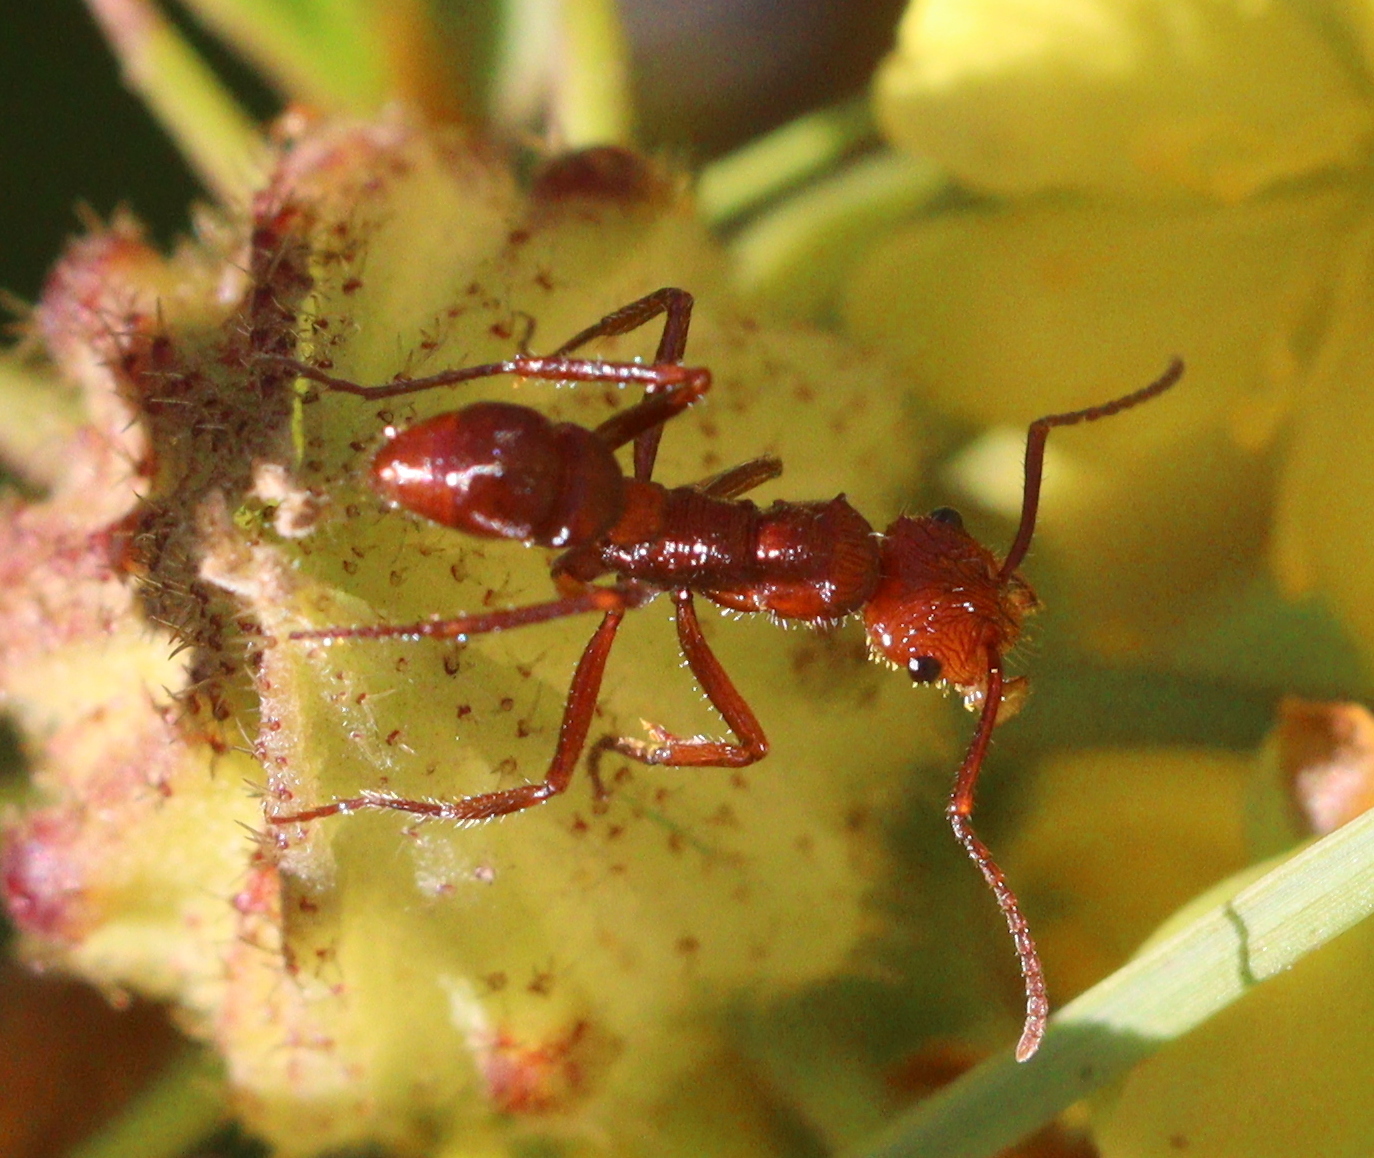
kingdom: Animalia
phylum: Arthropoda
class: Insecta
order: Hymenoptera
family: Formicidae
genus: Ectatomma
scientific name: Ectatomma tuberculatum
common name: Ant
